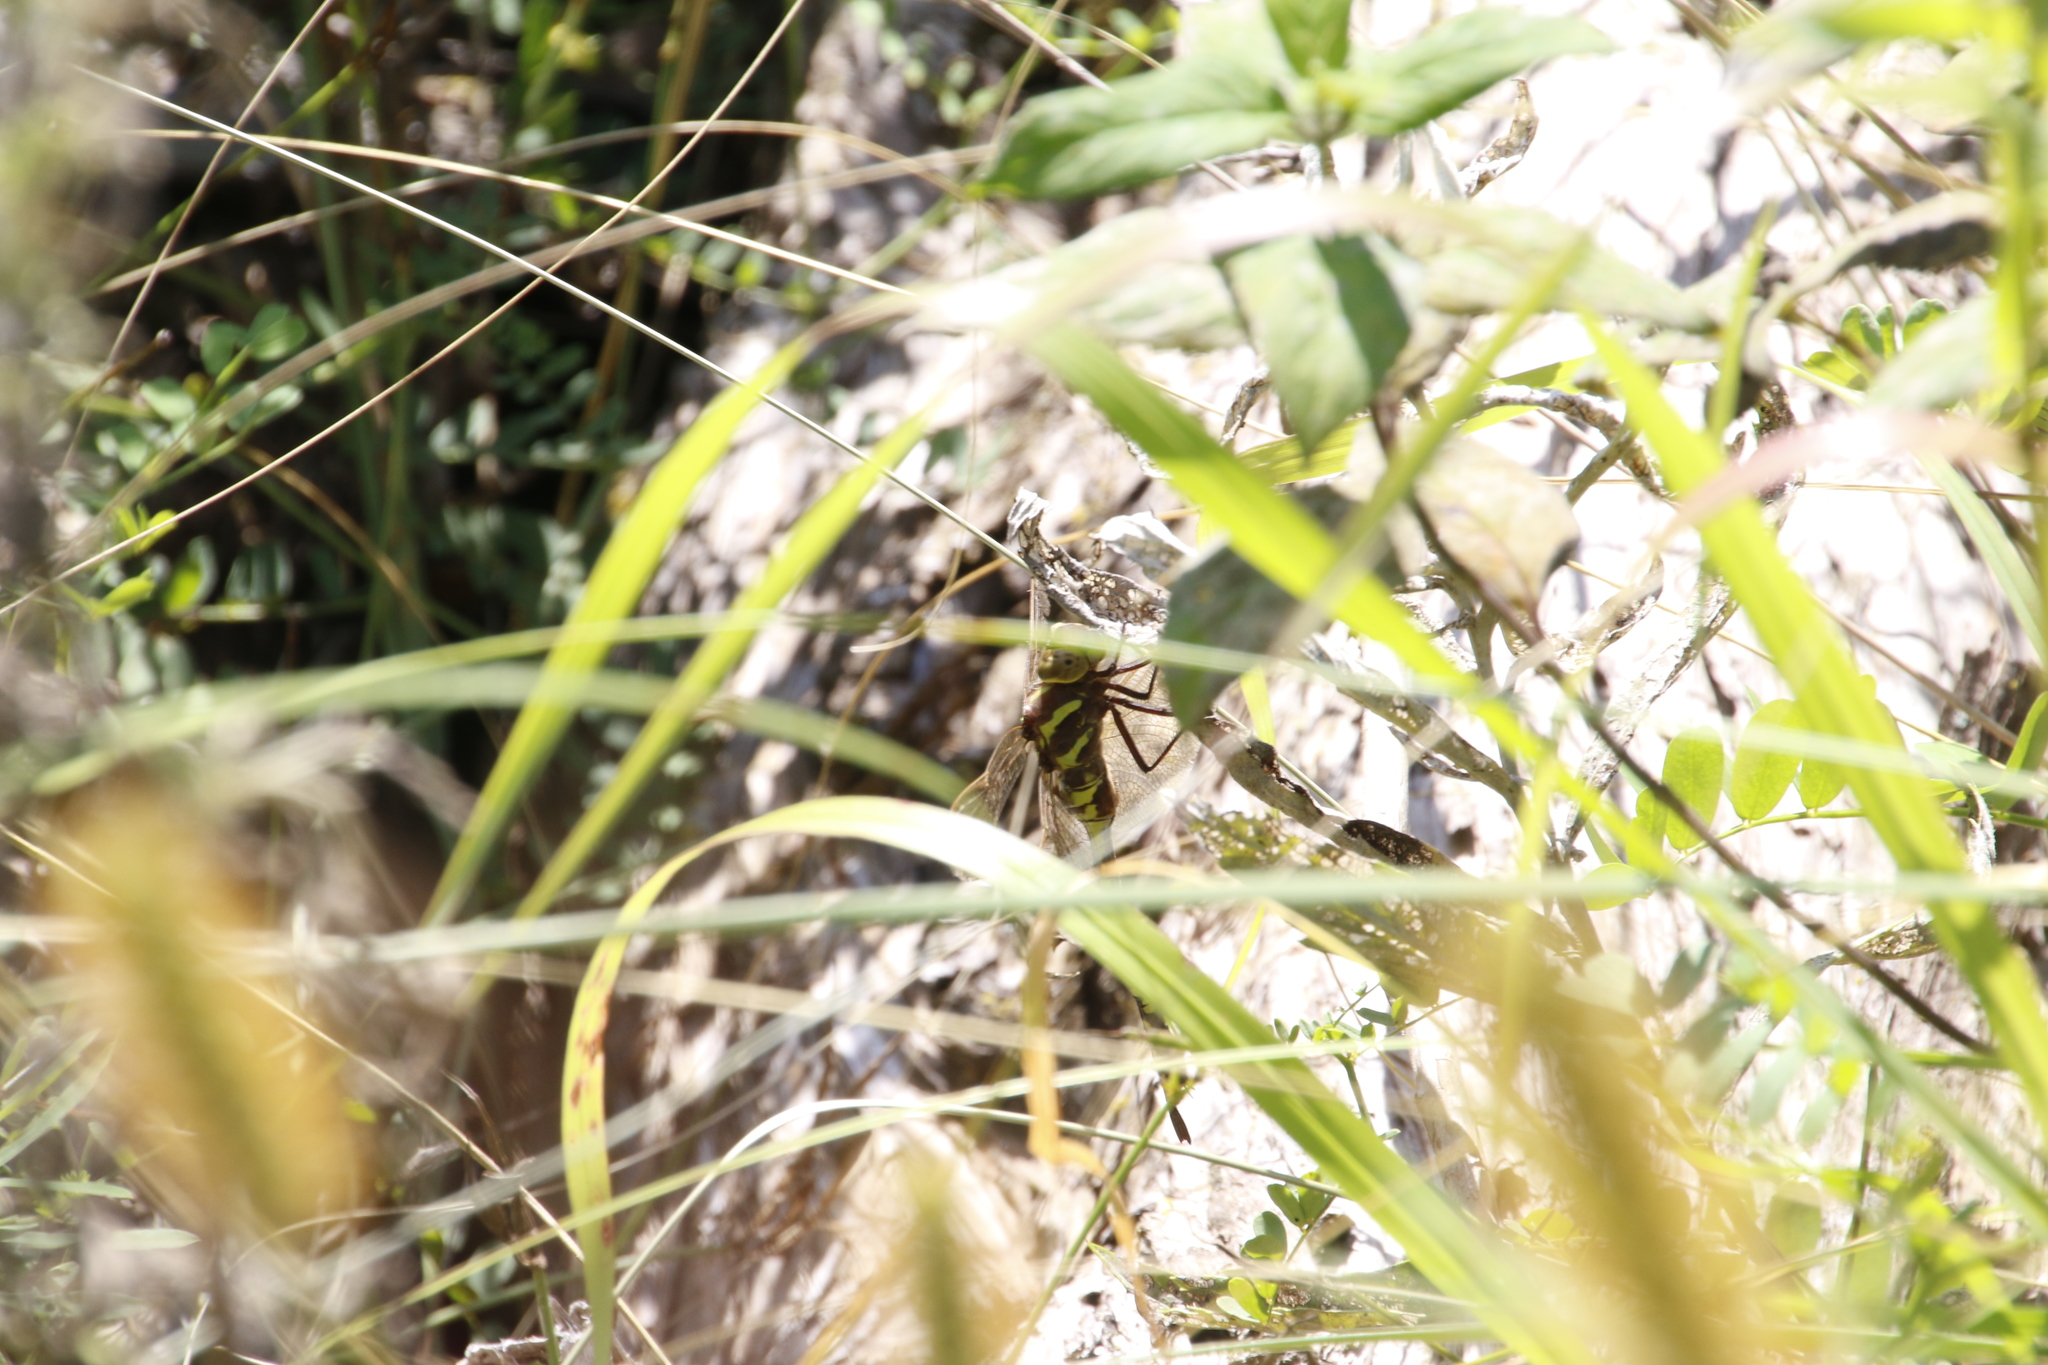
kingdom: Animalia
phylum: Arthropoda
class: Insecta
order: Odonata
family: Aeshnidae
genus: Aeshna
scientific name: Aeshna constricta
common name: Lance-tipped darner
